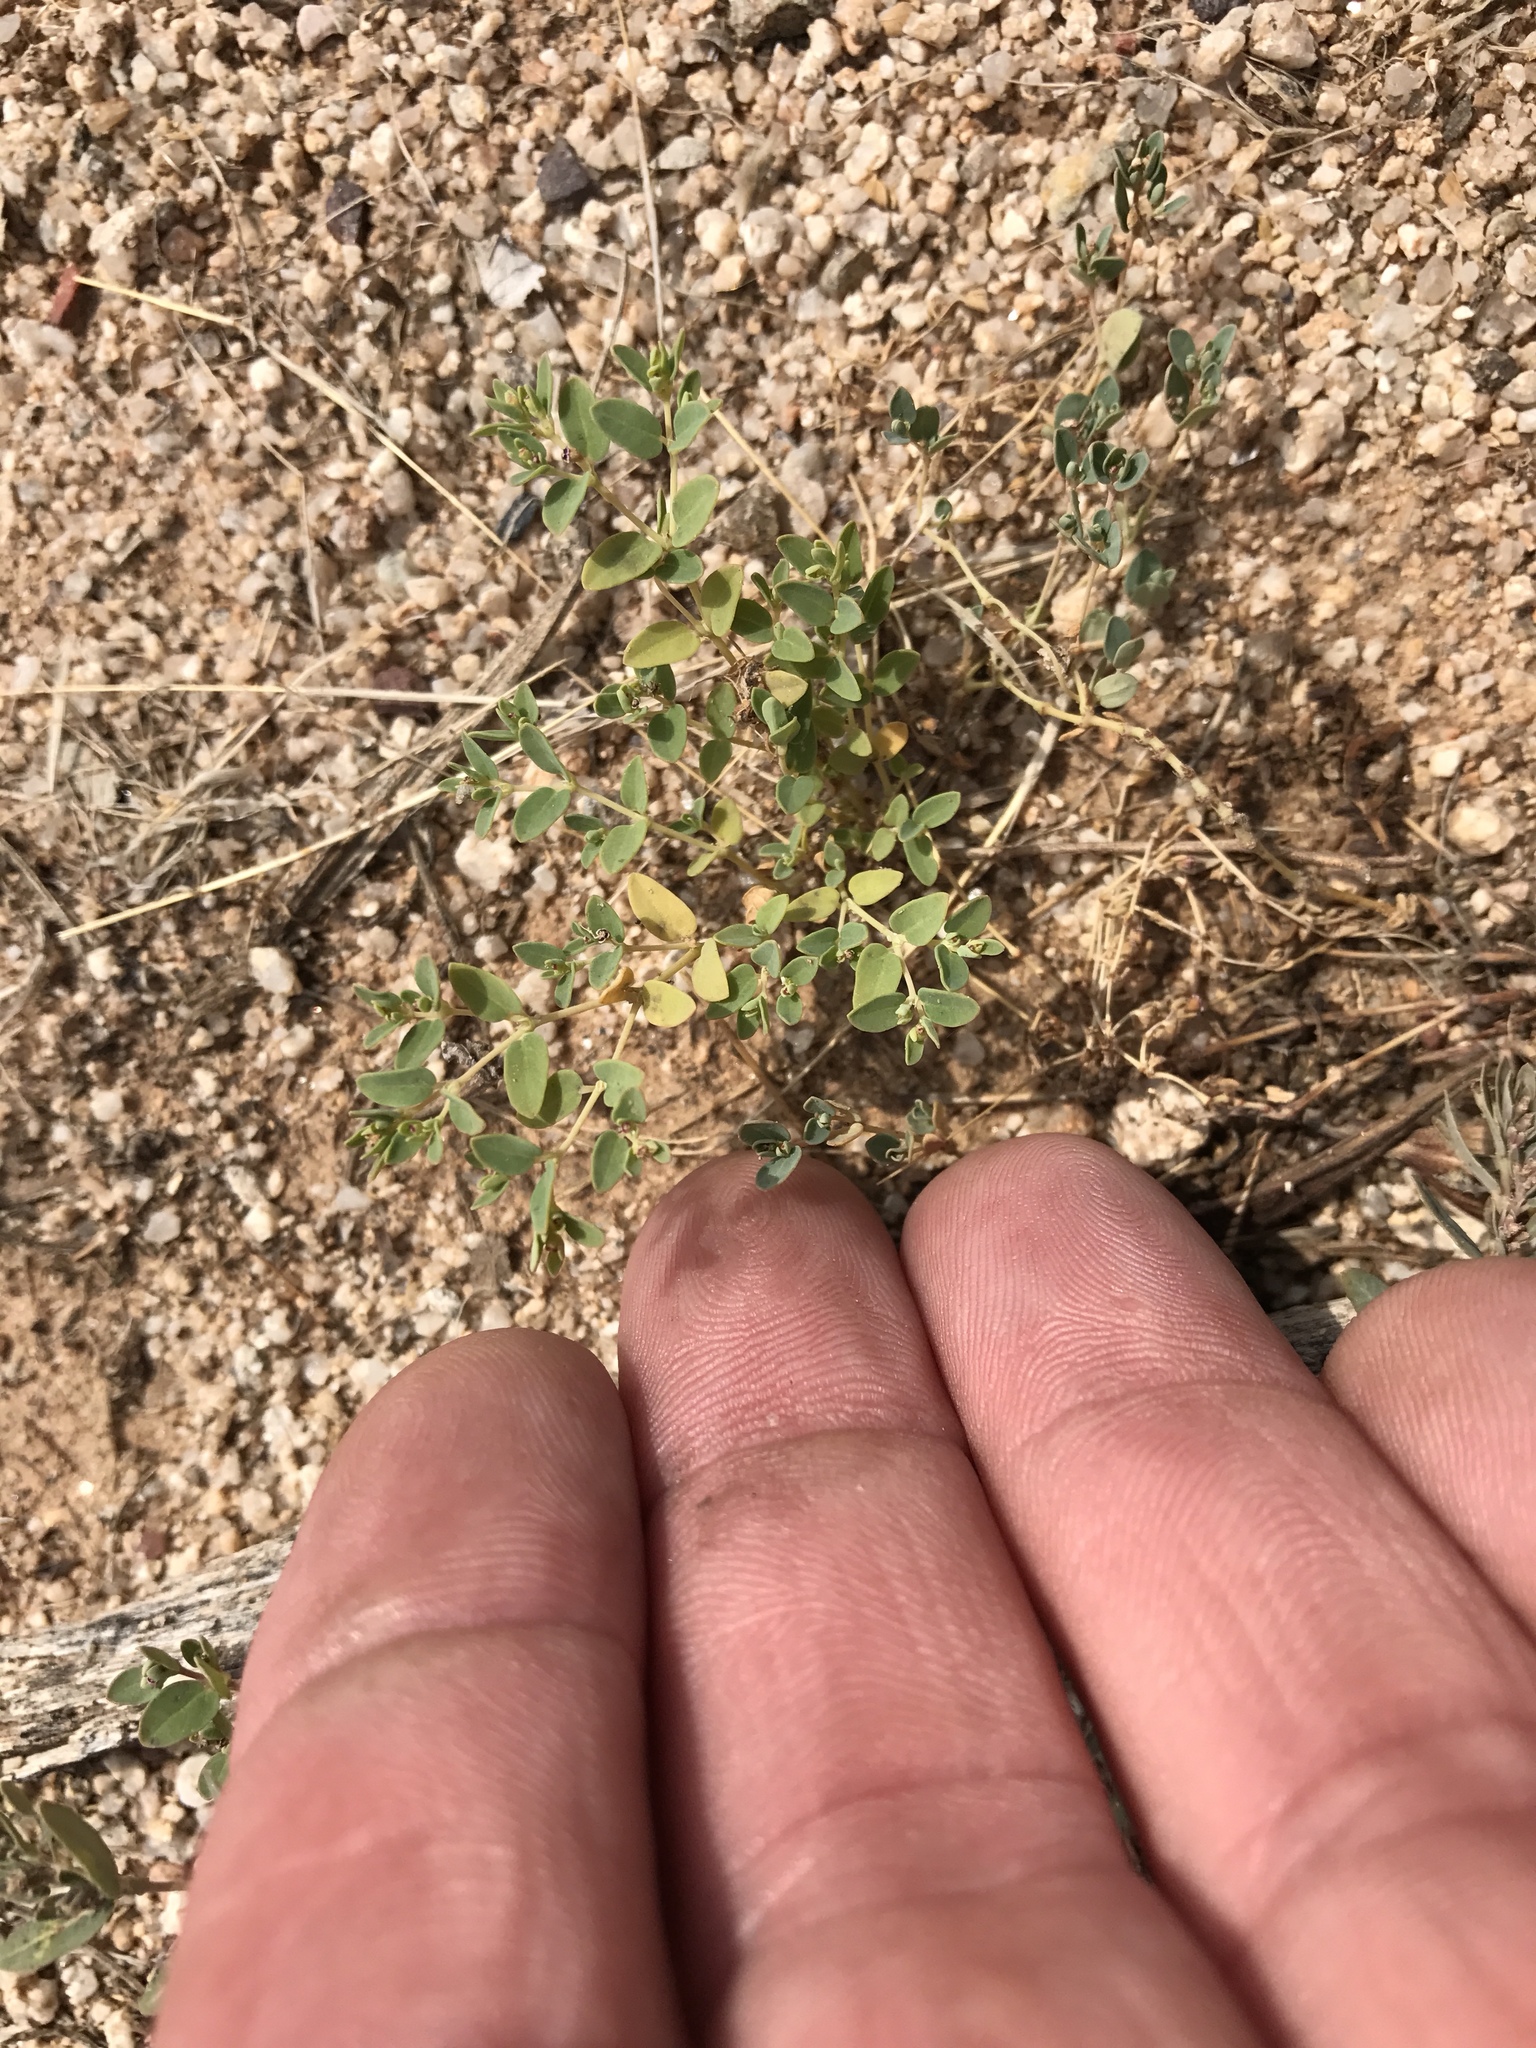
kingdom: Plantae
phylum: Tracheophyta
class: Magnoliopsida
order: Malpighiales
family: Euphorbiaceae
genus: Euphorbia
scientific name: Euphorbia polycarpa
